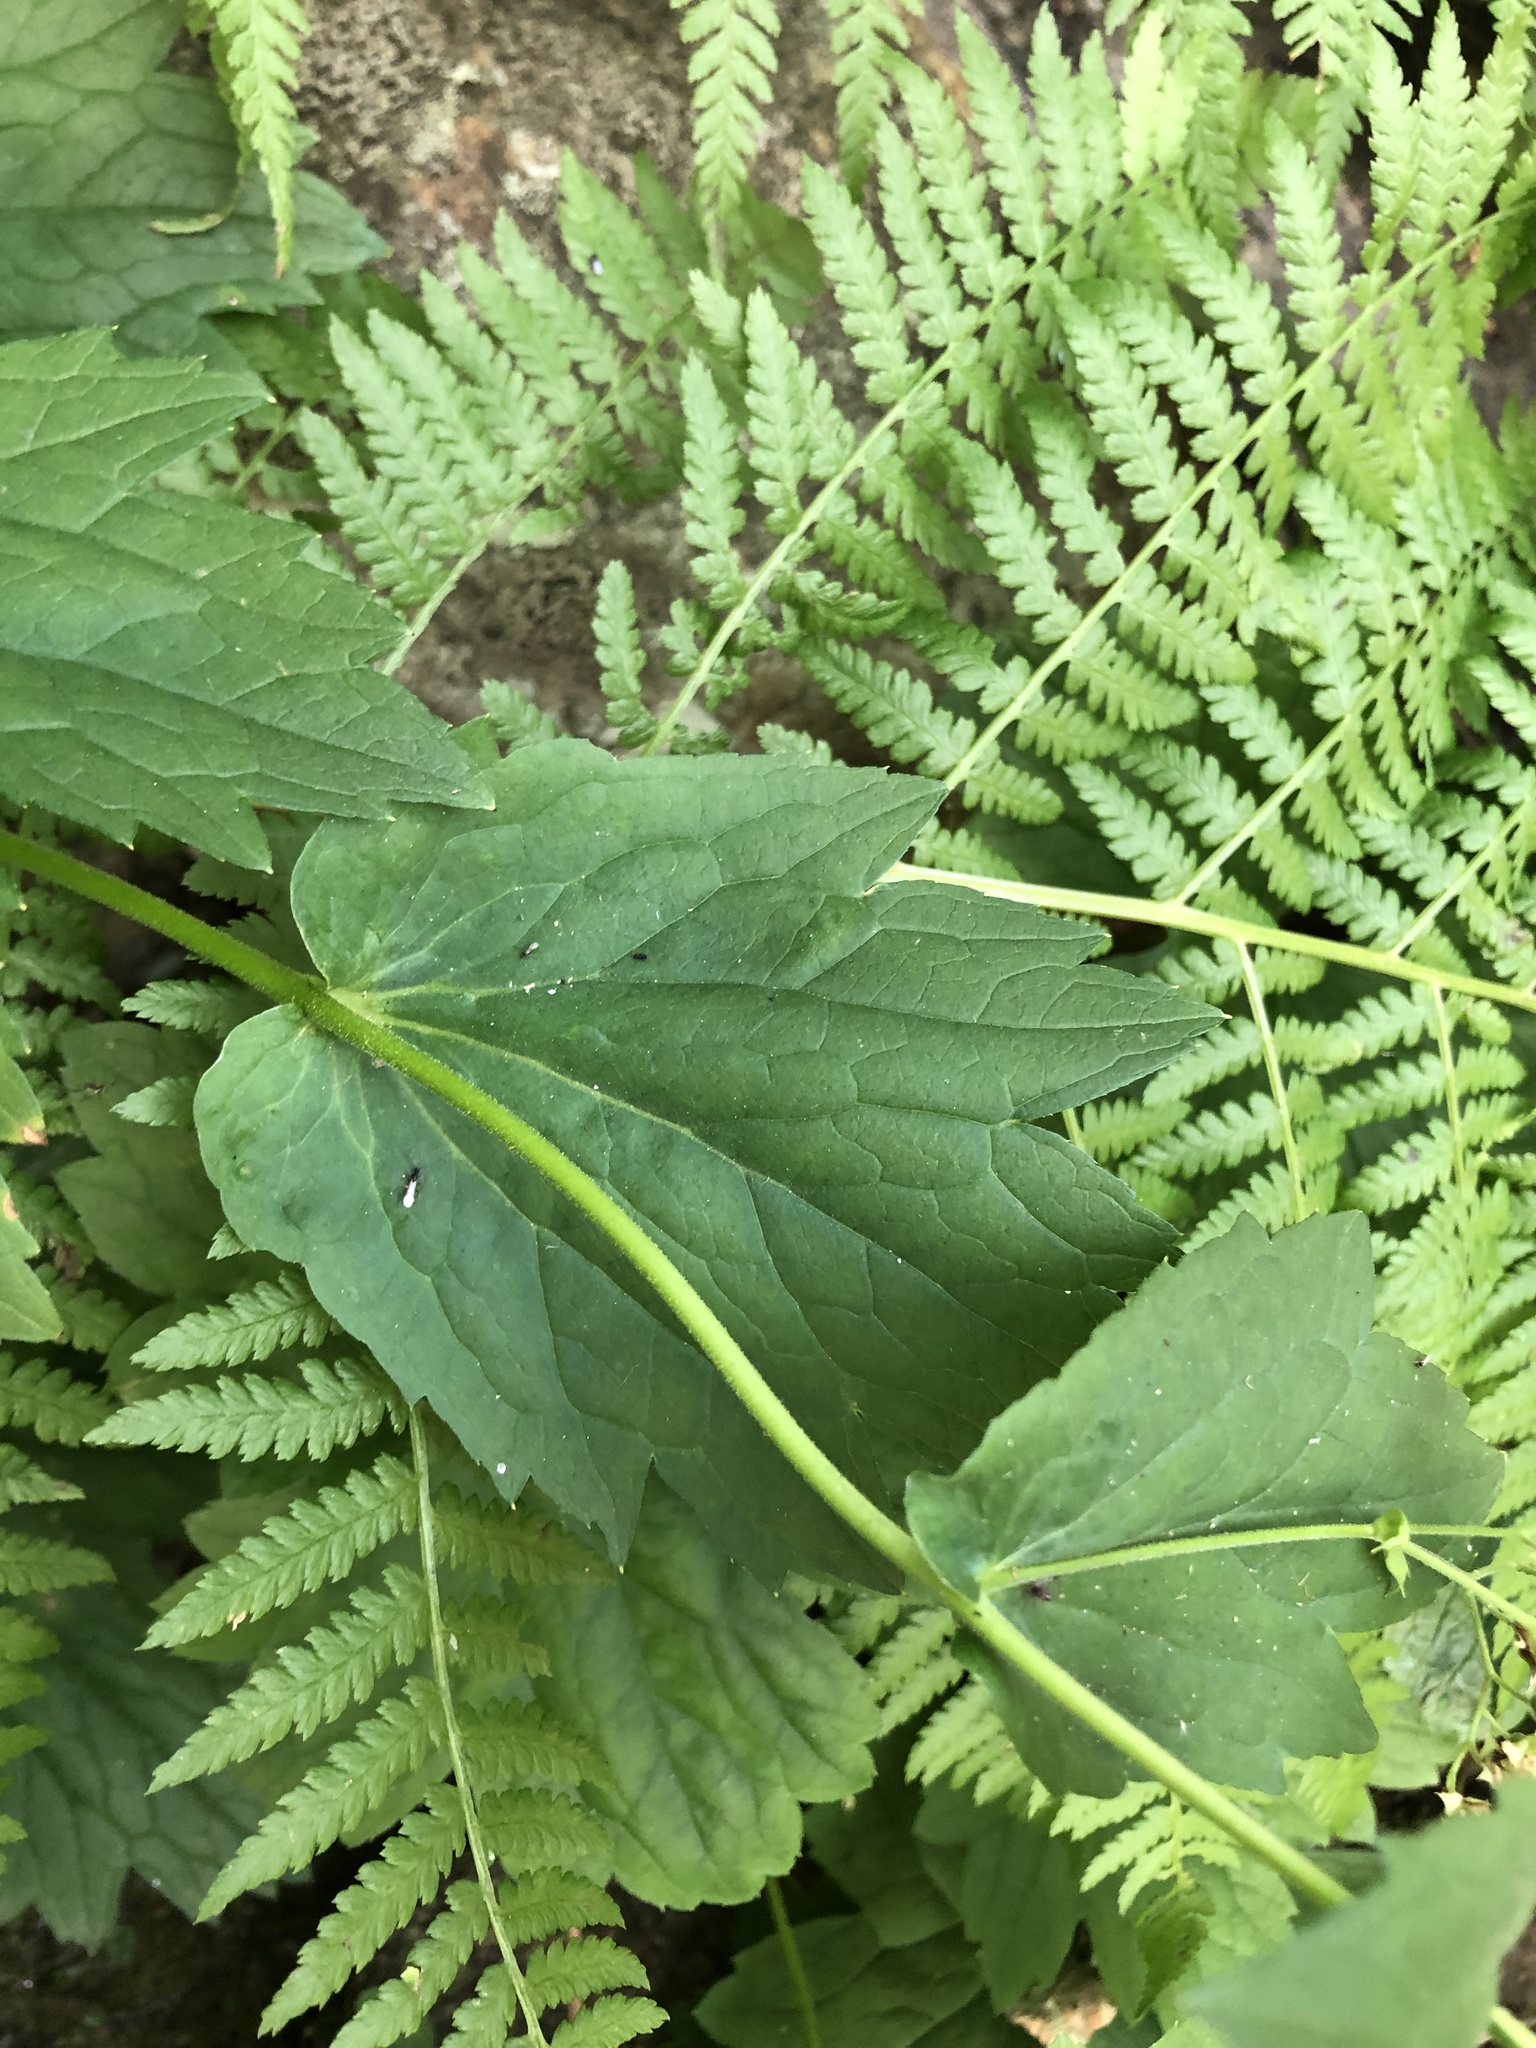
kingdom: Plantae
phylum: Tracheophyta
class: Magnoliopsida
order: Saxifragales
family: Saxifragaceae
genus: Boykinia
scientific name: Boykinia major
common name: Large boykinia
